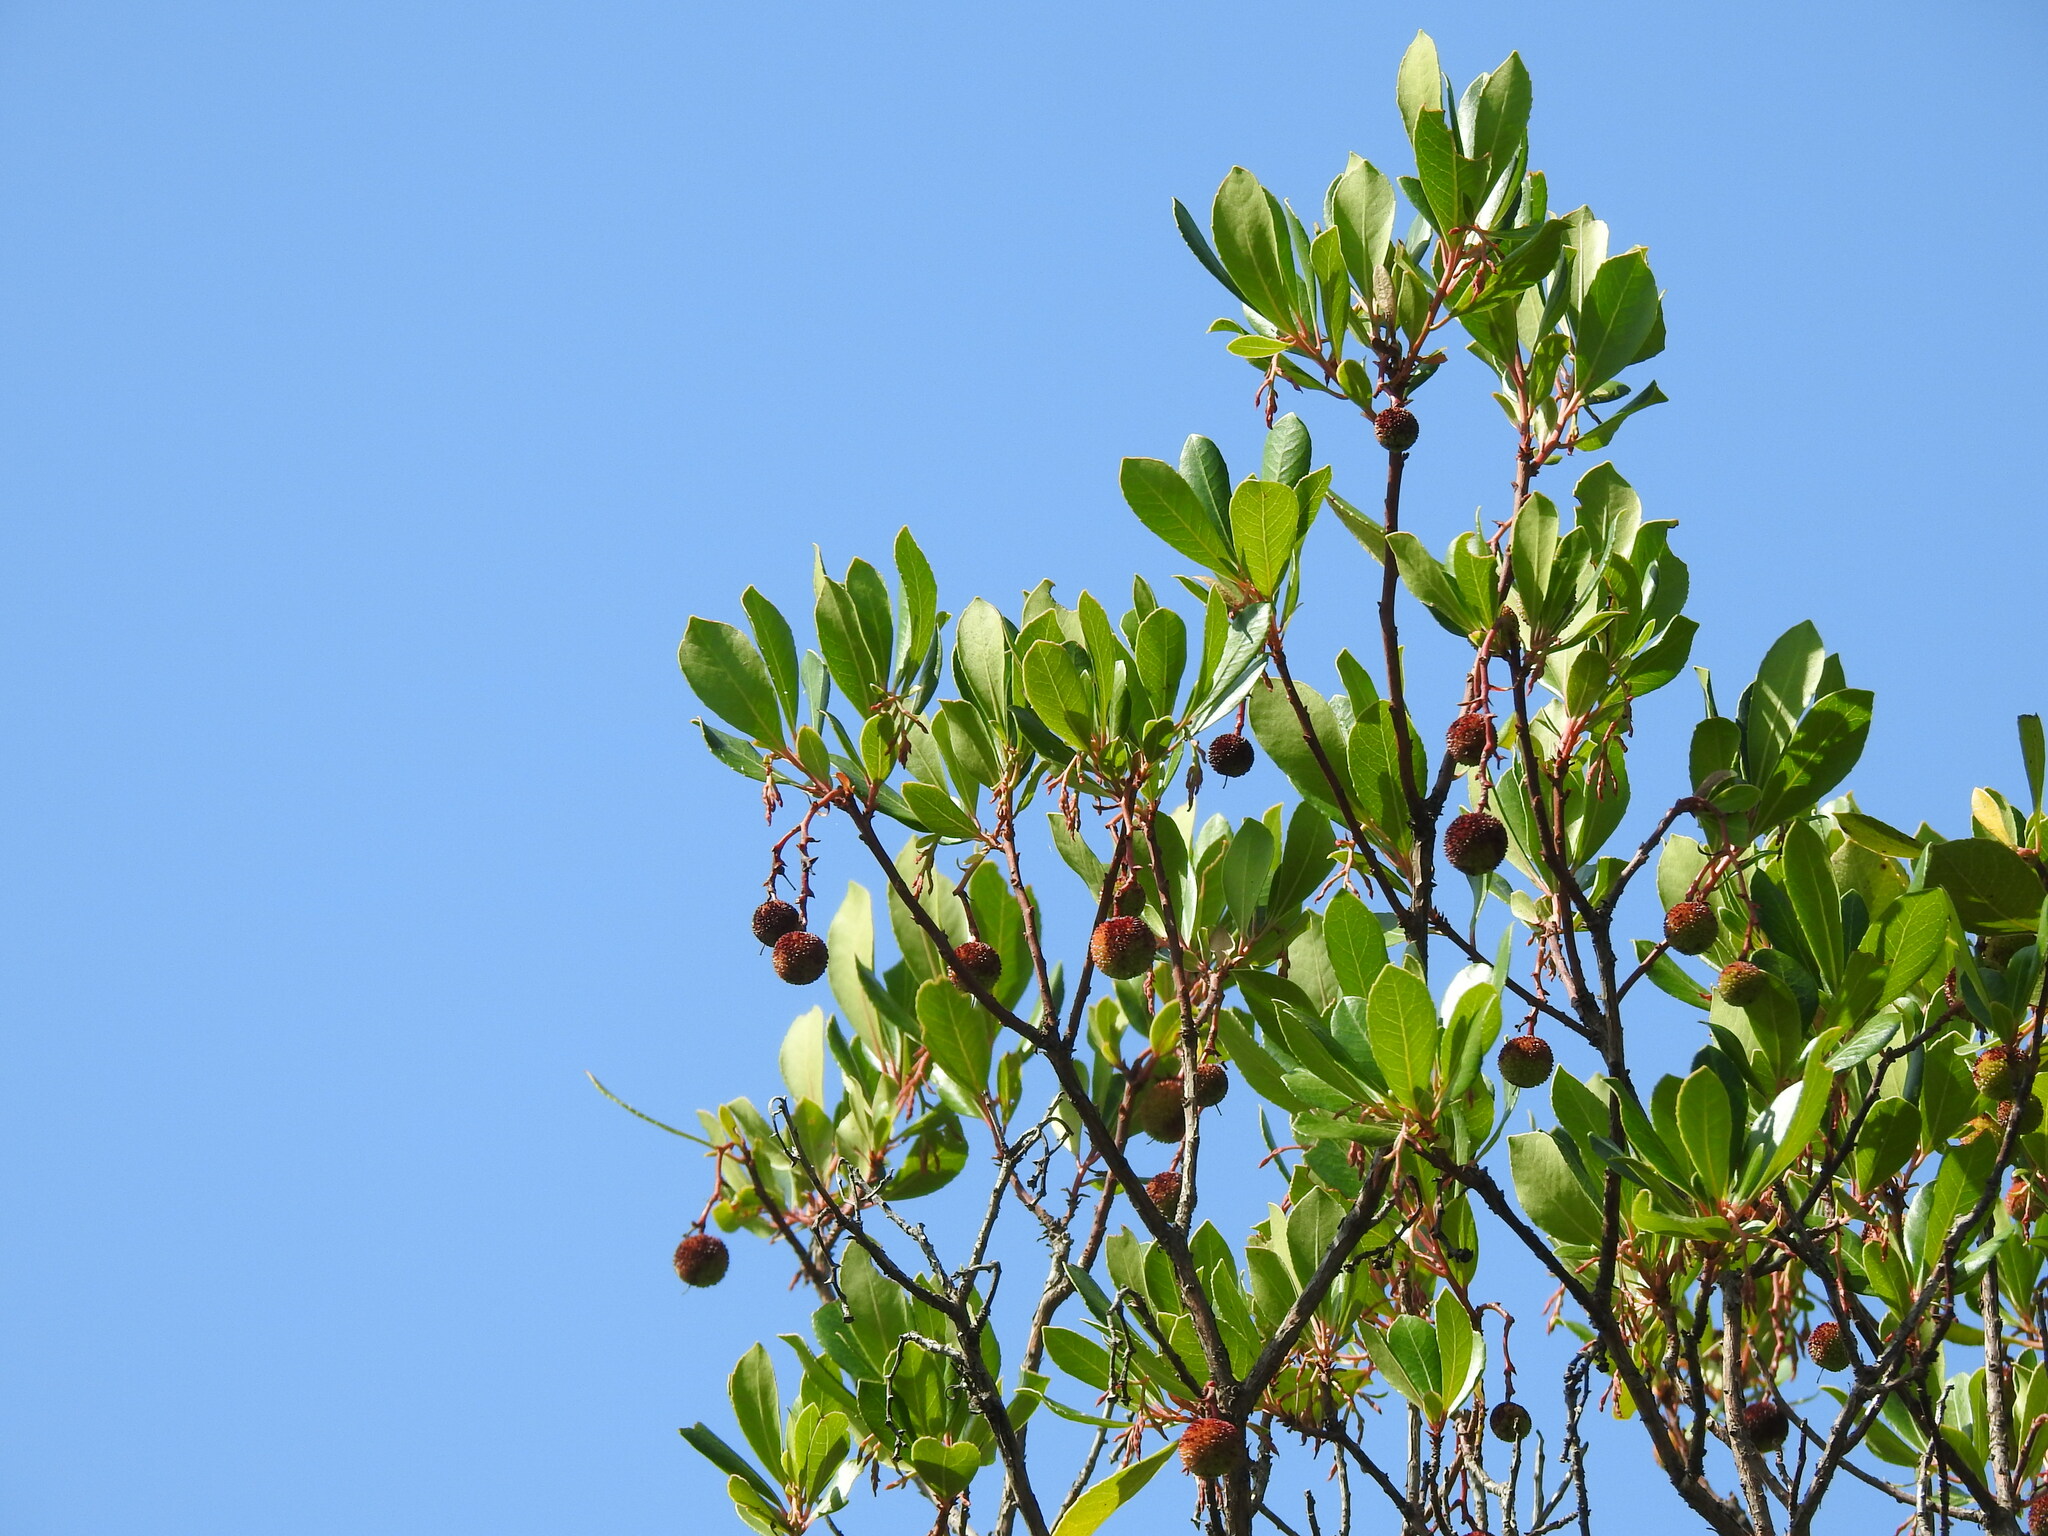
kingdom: Plantae
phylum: Tracheophyta
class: Magnoliopsida
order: Ericales
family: Ericaceae
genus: Arbutus
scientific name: Arbutus unedo
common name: Strawberry-tree
